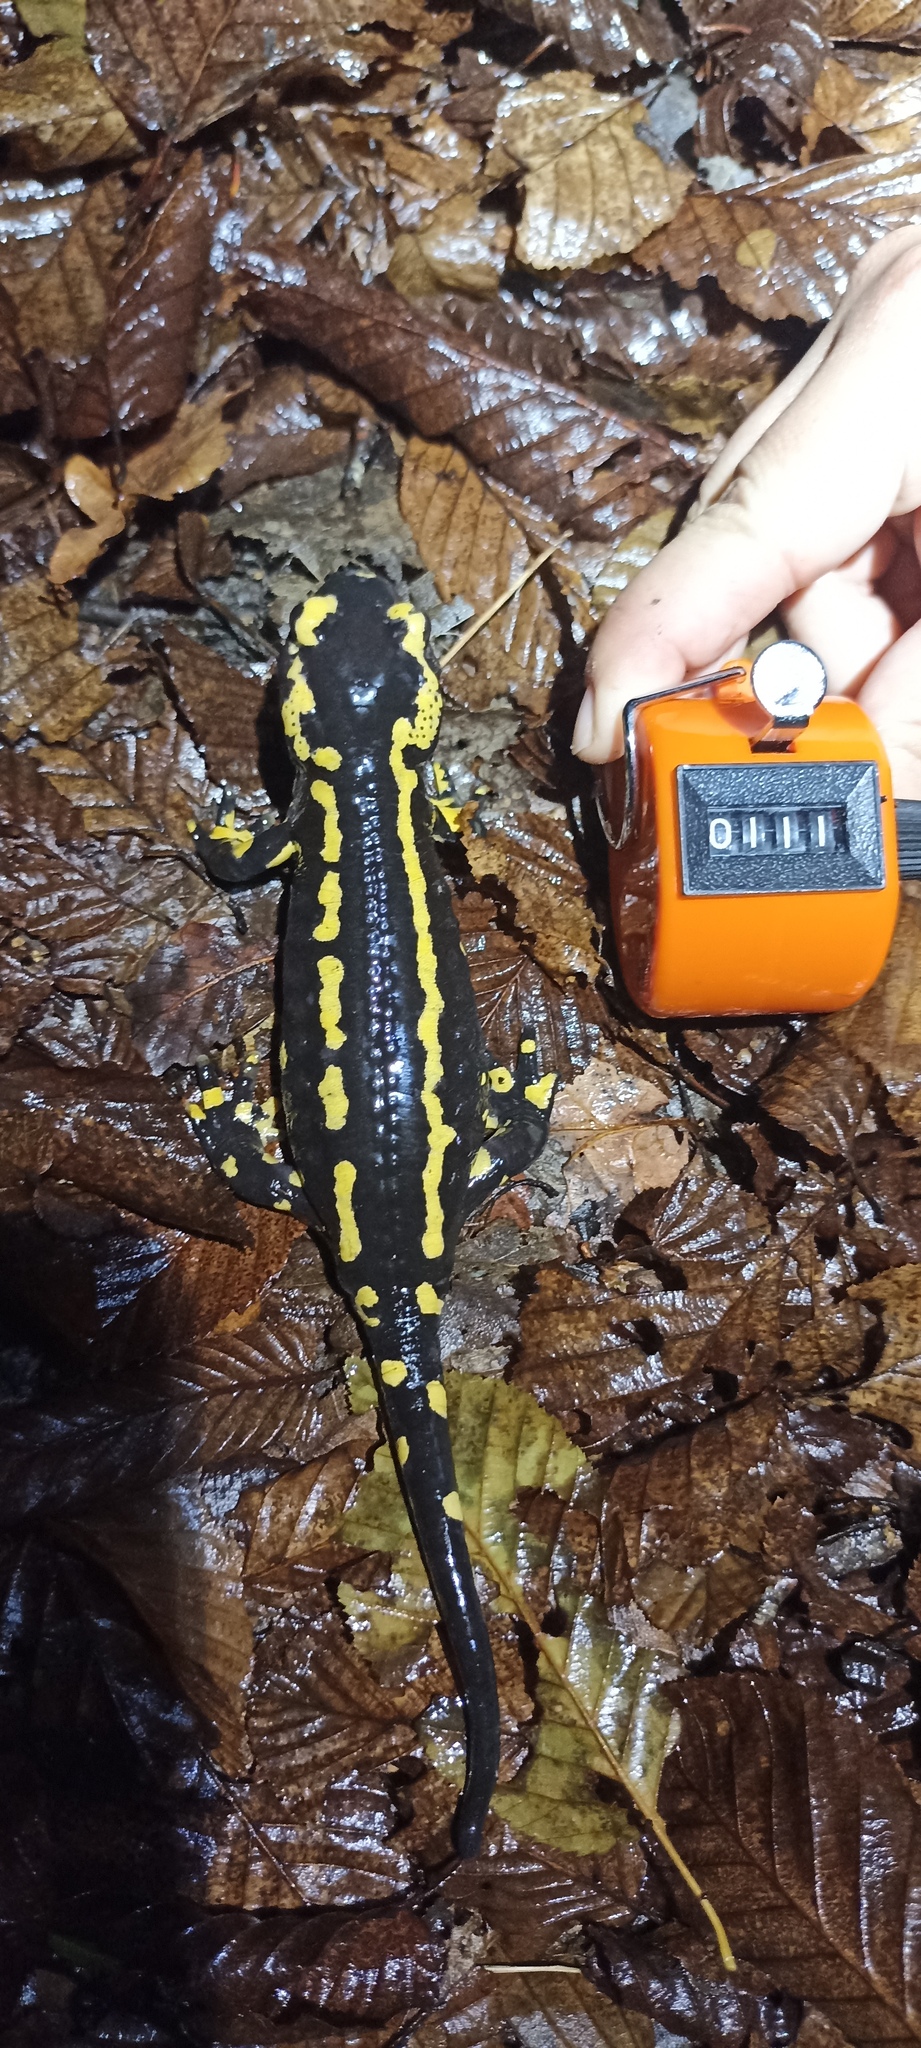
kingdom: Animalia
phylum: Chordata
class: Amphibia
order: Caudata
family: Salamandridae
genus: Salamandra
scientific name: Salamandra salamandra
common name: Fire salamander
